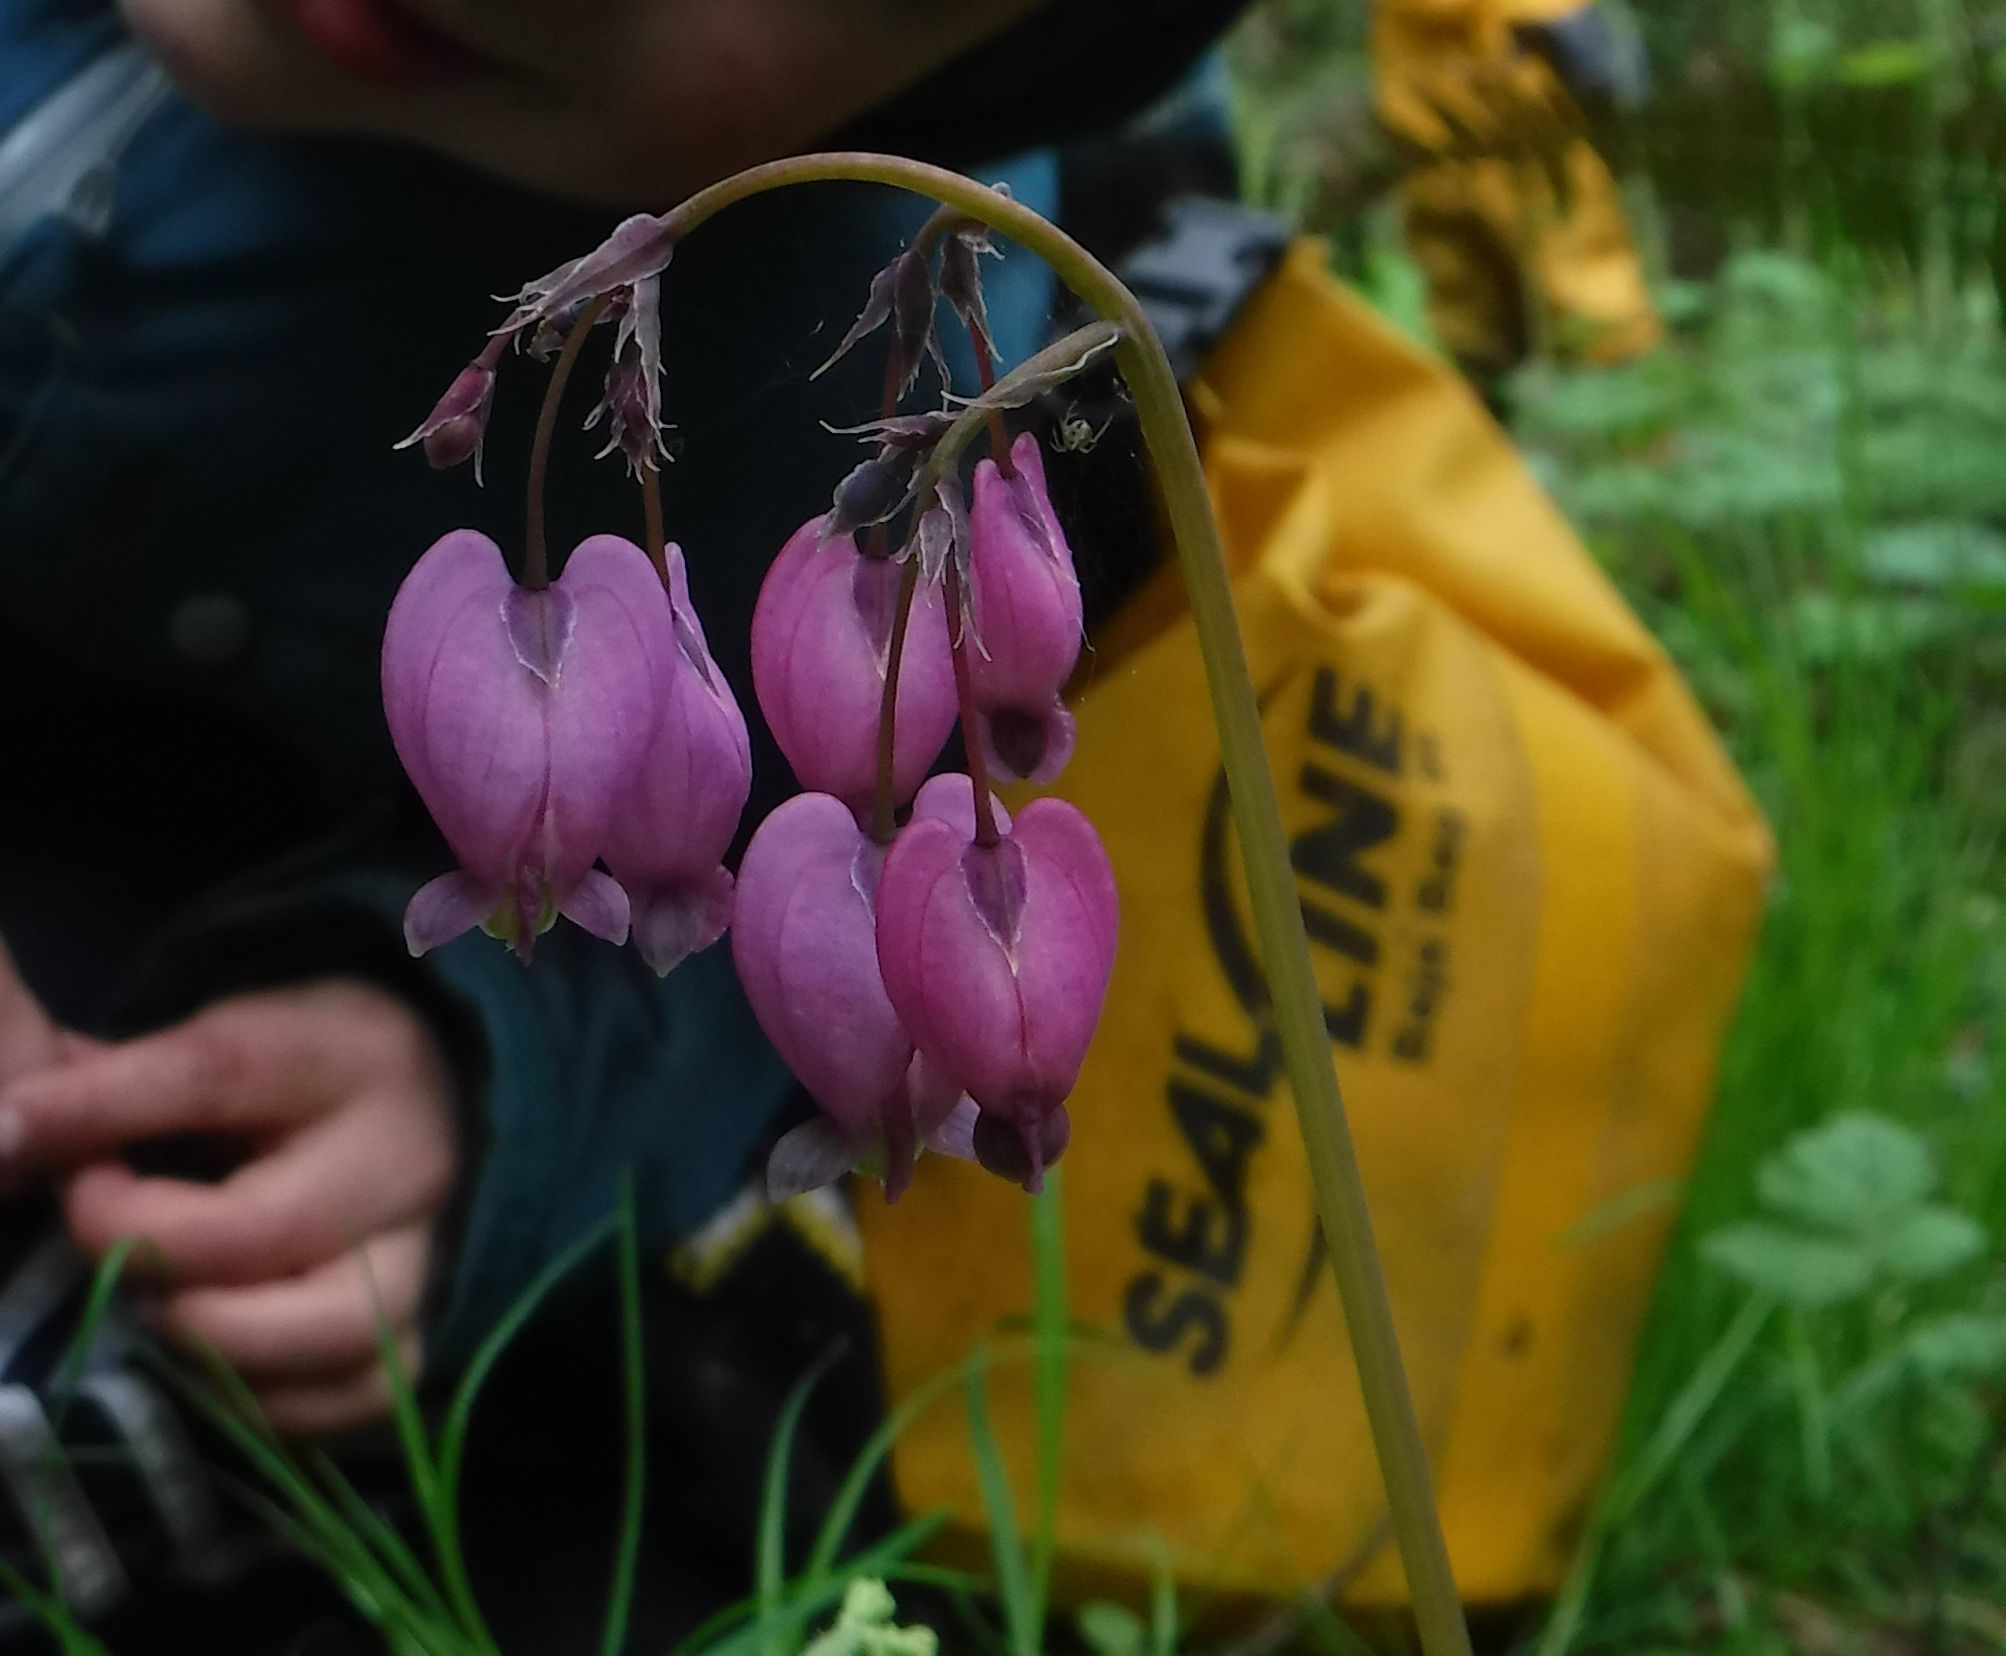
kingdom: Plantae
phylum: Tracheophyta
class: Magnoliopsida
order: Ranunculales
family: Papaveraceae
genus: Dicentra
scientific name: Dicentra formosa
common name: Bleeding-heart
